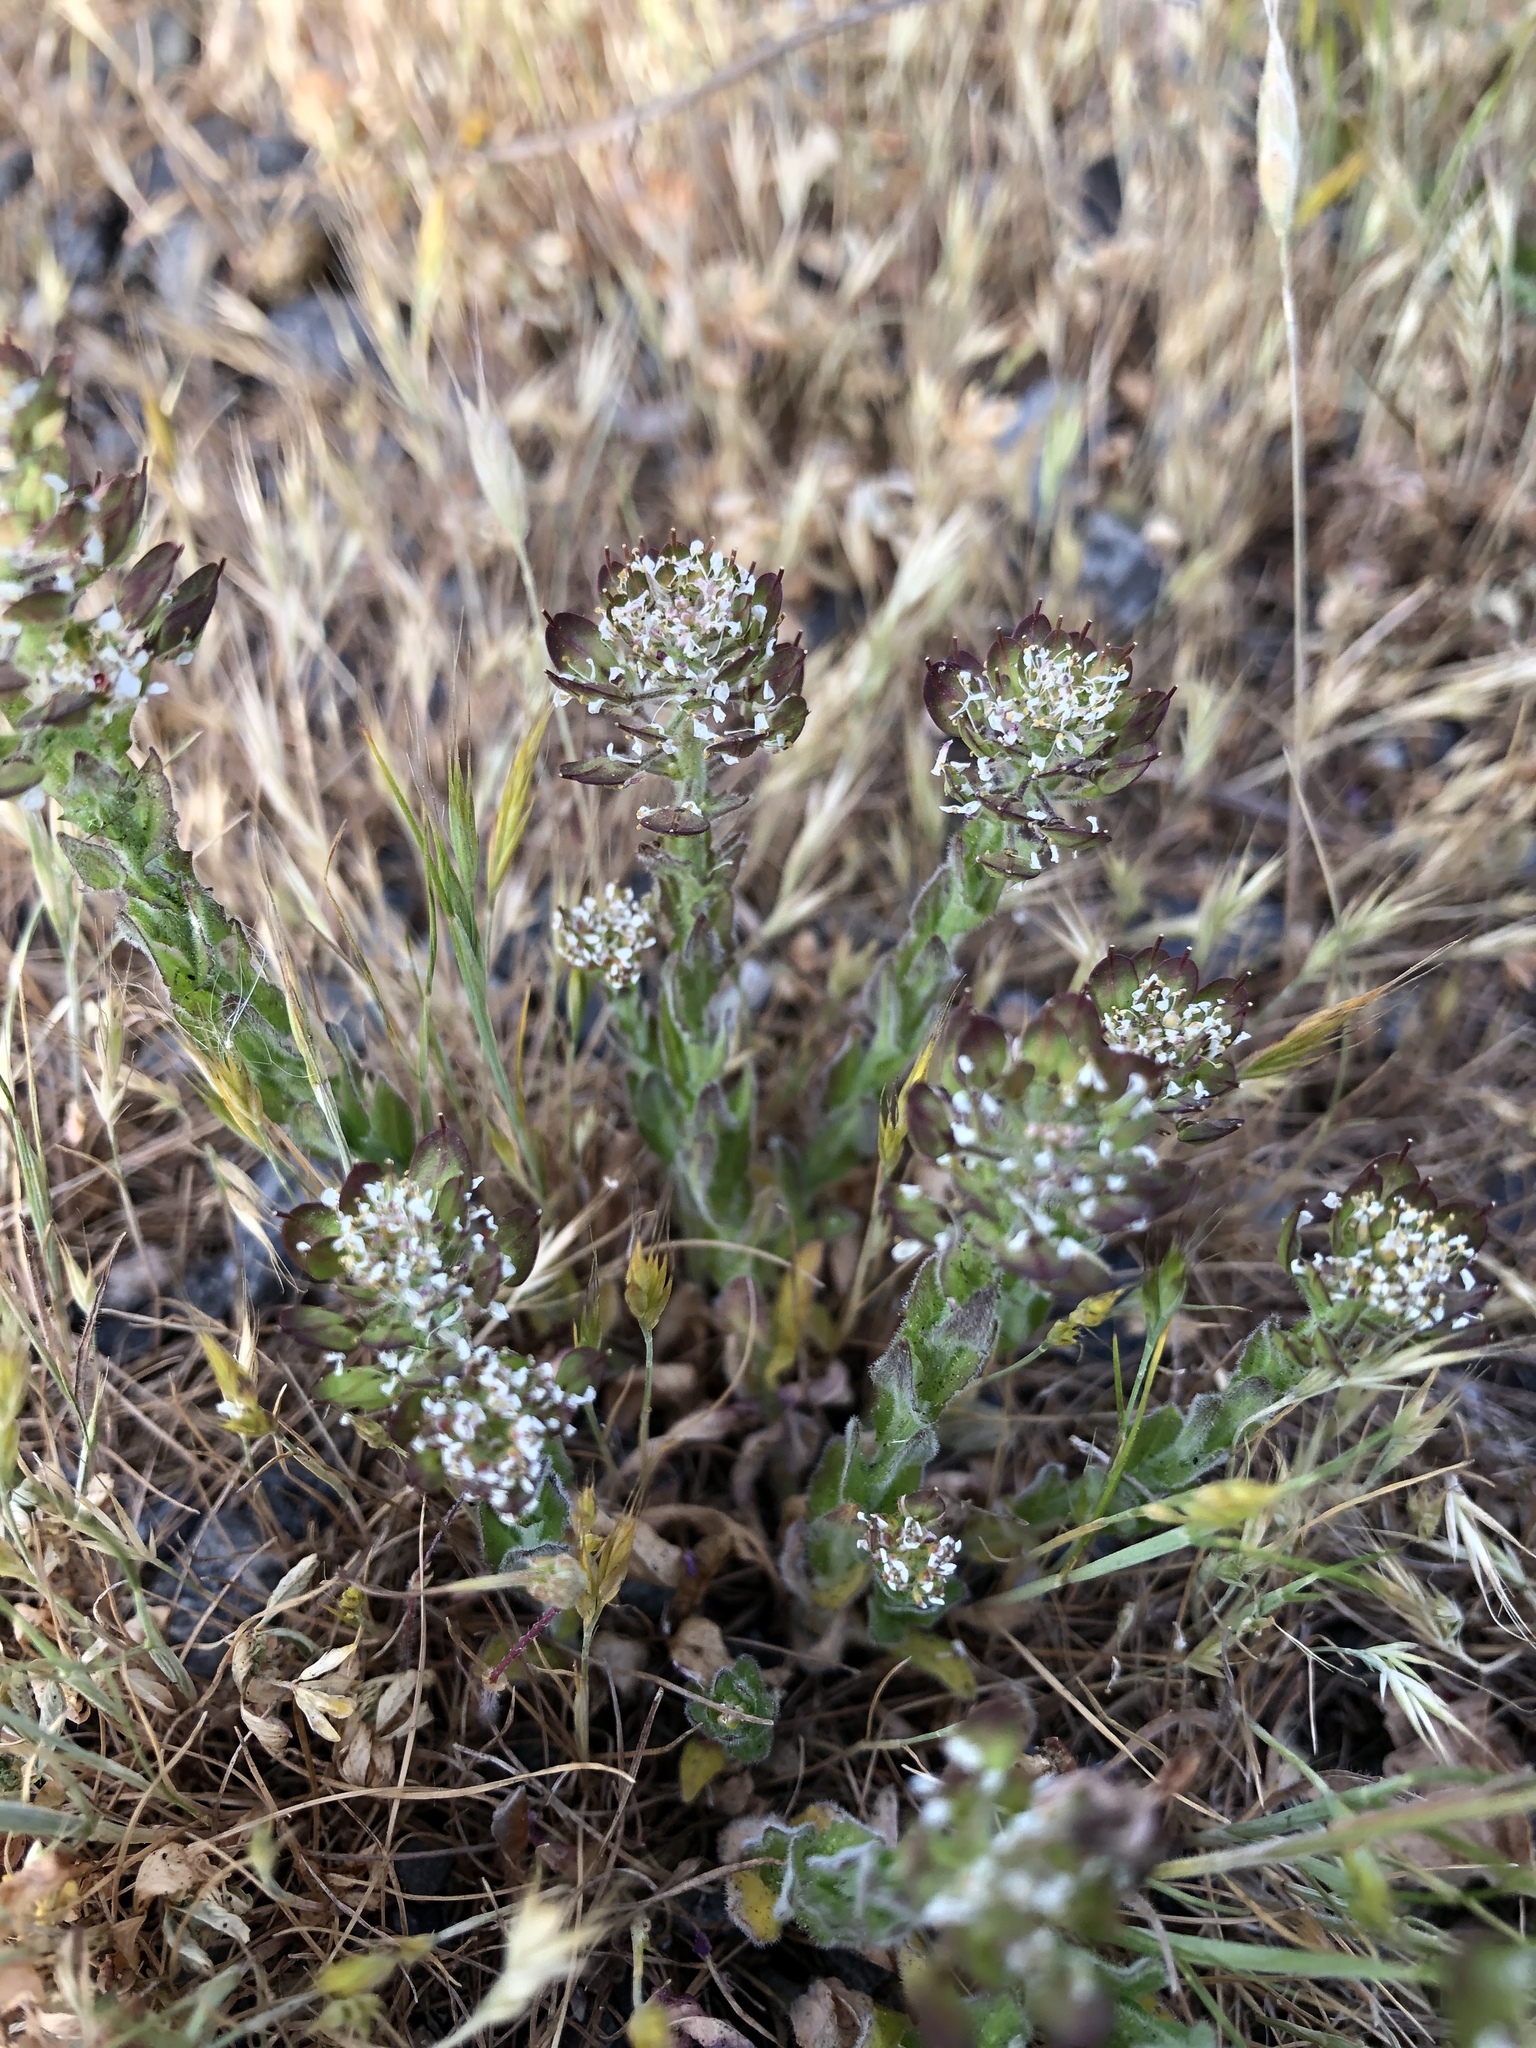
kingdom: Plantae
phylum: Tracheophyta
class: Magnoliopsida
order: Brassicales
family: Brassicaceae
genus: Lepidium
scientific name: Lepidium heterophyllum
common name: Smith's pepperwort
